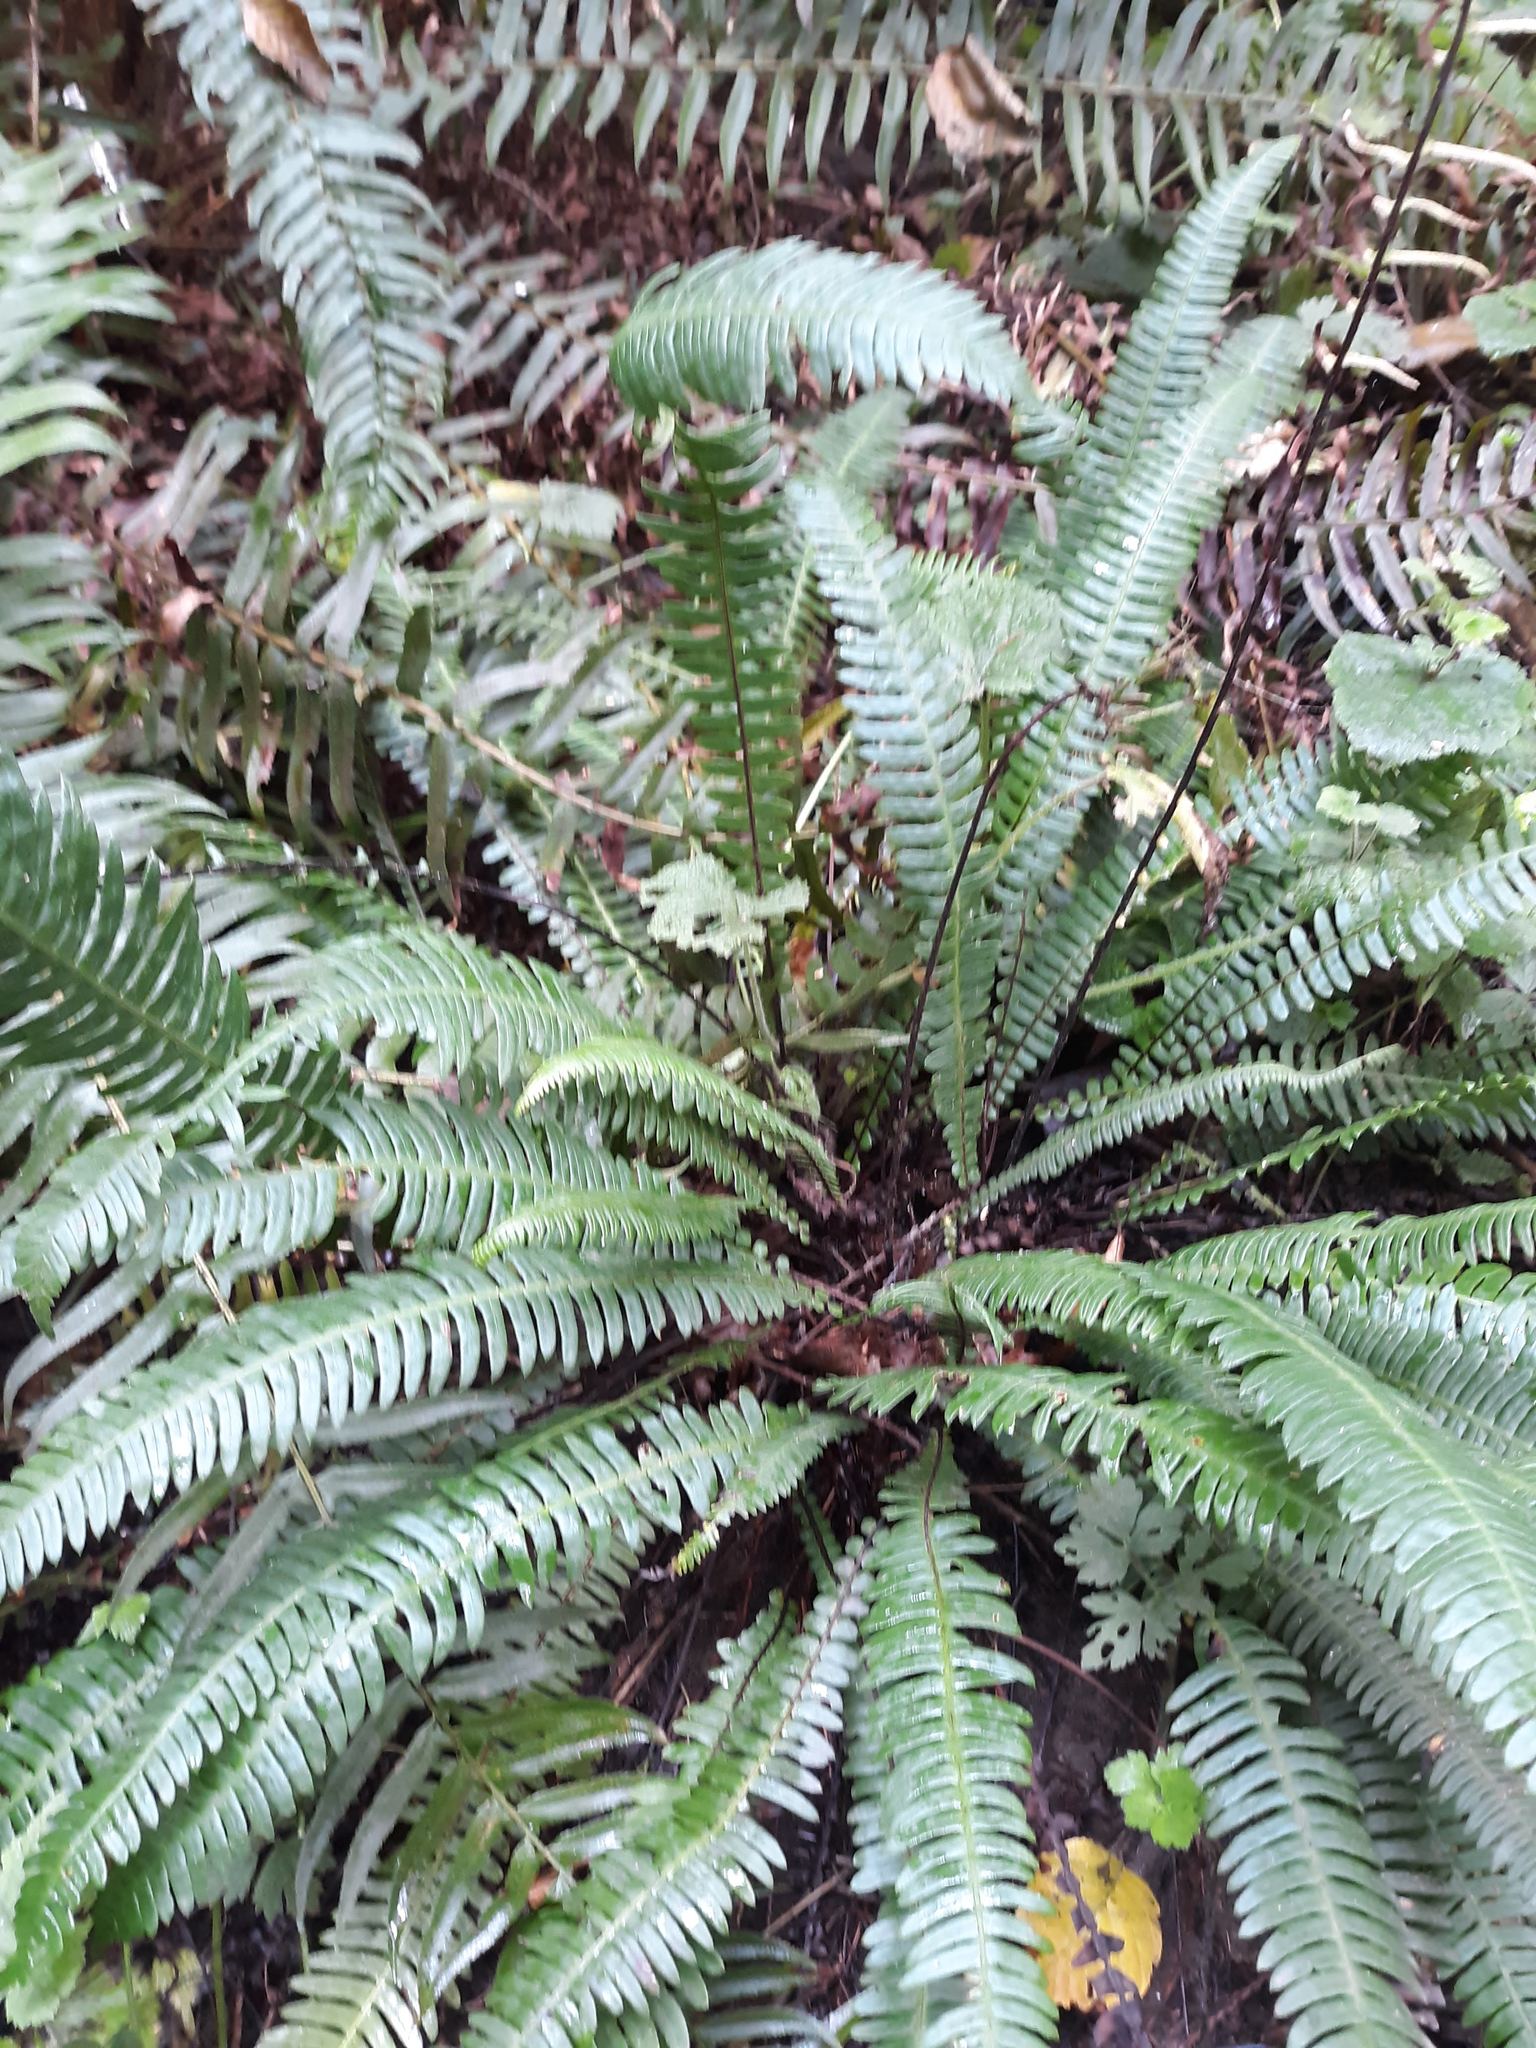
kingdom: Plantae
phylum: Tracheophyta
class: Polypodiopsida
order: Polypodiales
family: Blechnaceae
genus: Struthiopteris
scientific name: Struthiopteris spicant
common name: Deer fern
